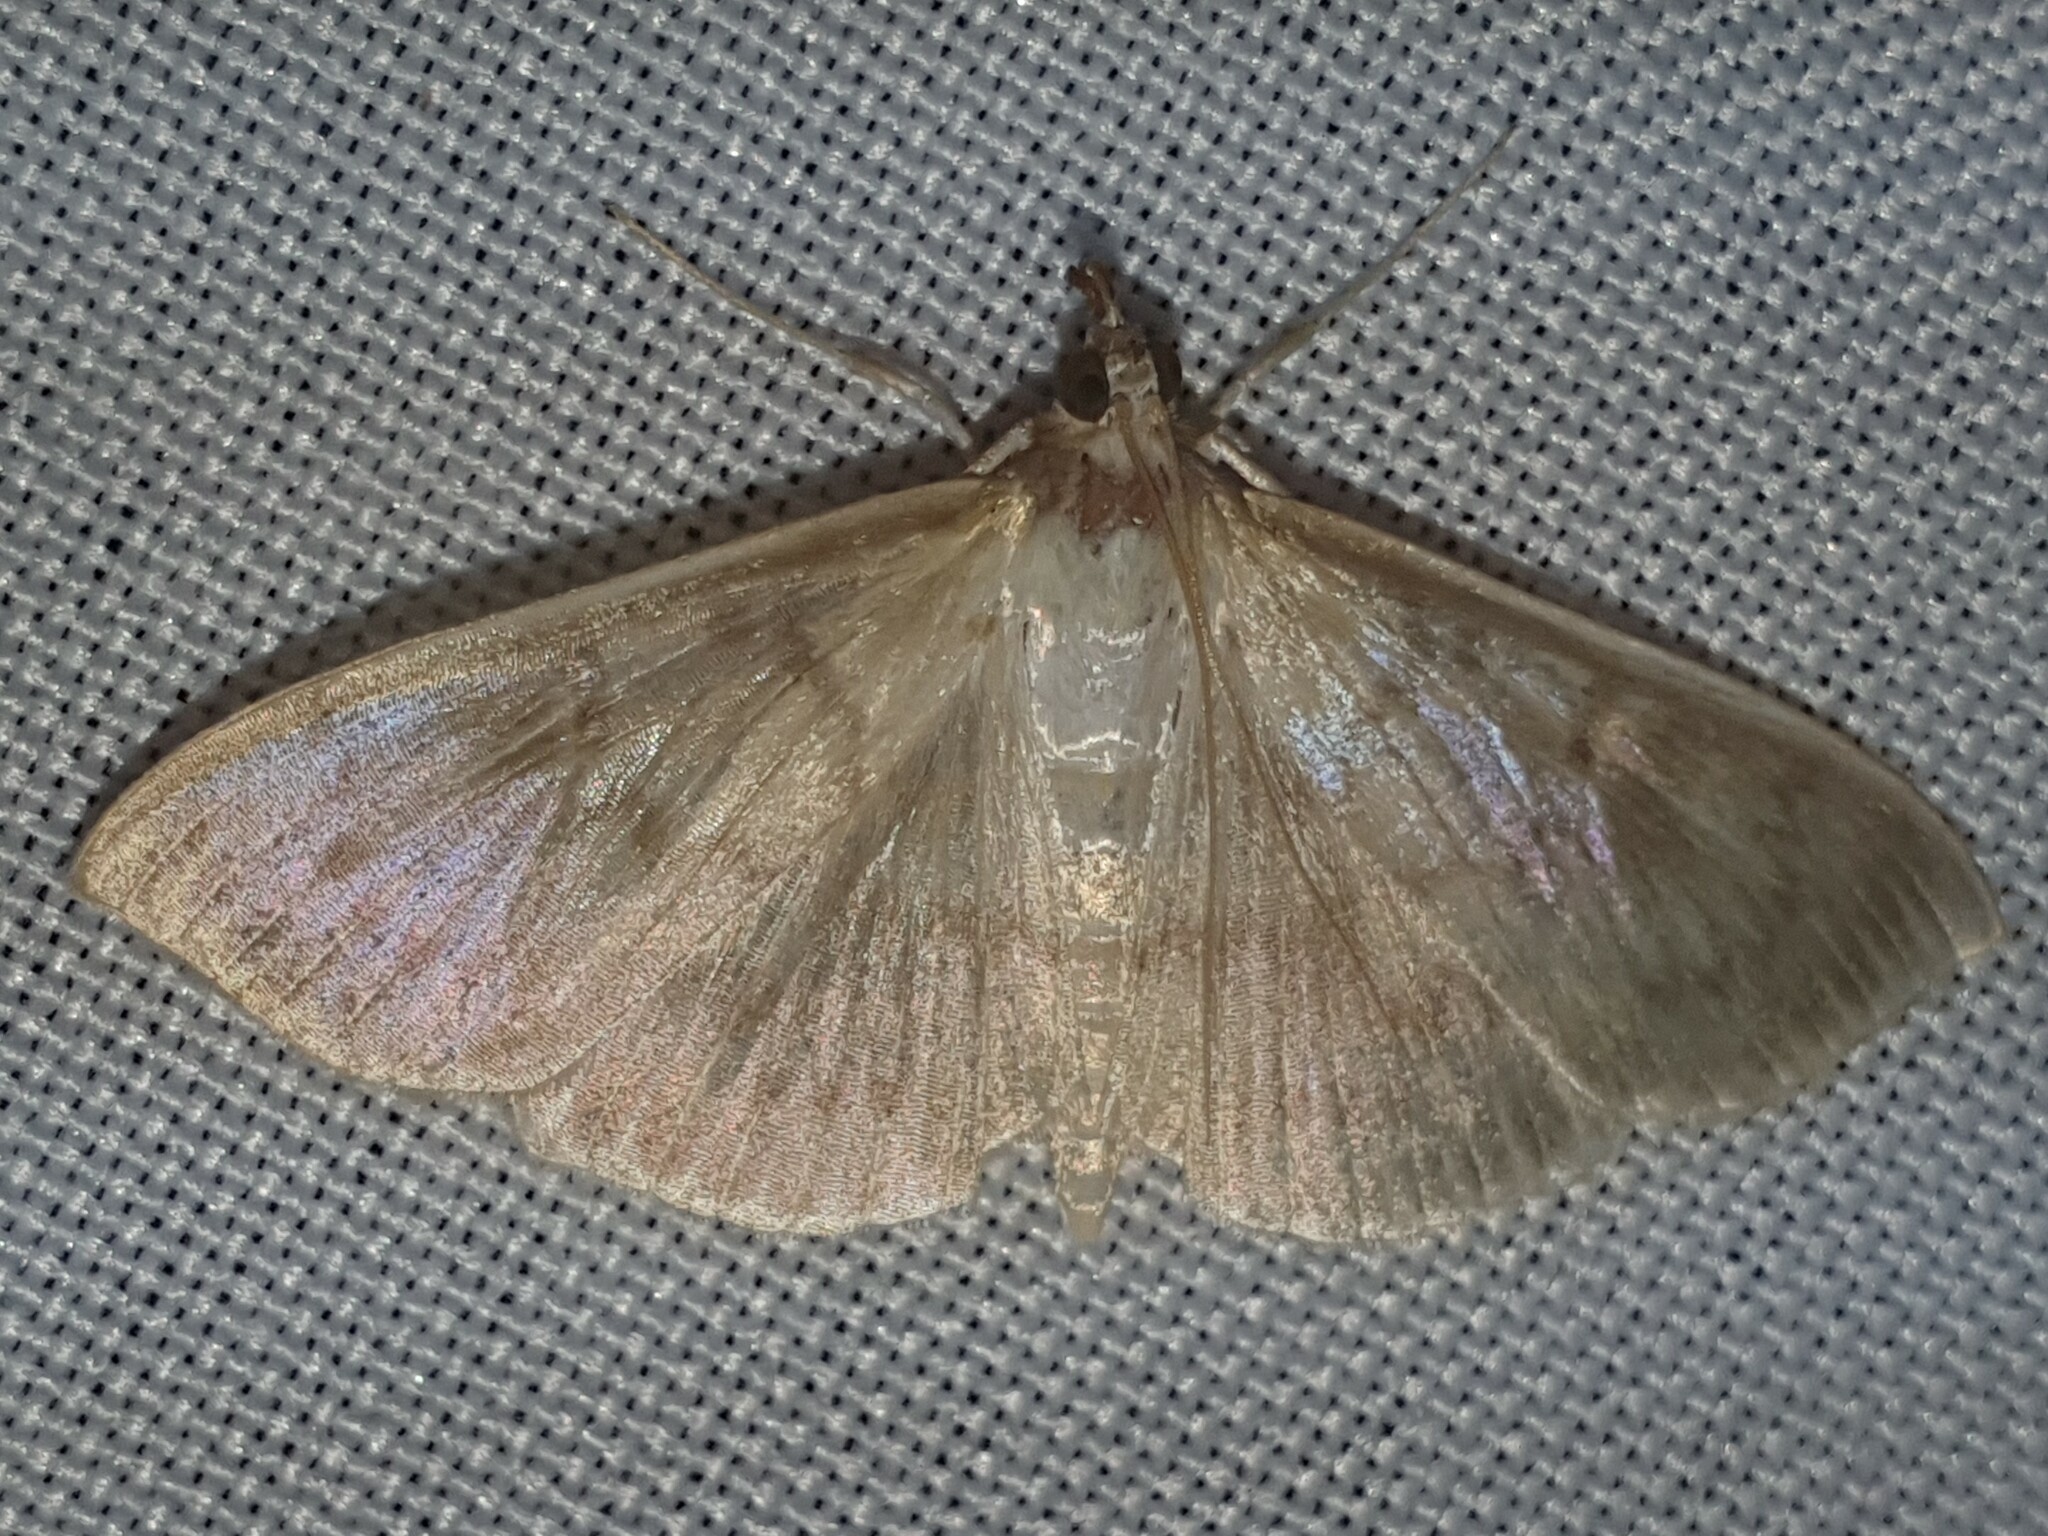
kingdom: Animalia
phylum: Arthropoda
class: Insecta
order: Lepidoptera
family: Crambidae
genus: Patania
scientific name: Patania ruralis
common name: Mother of pearl
